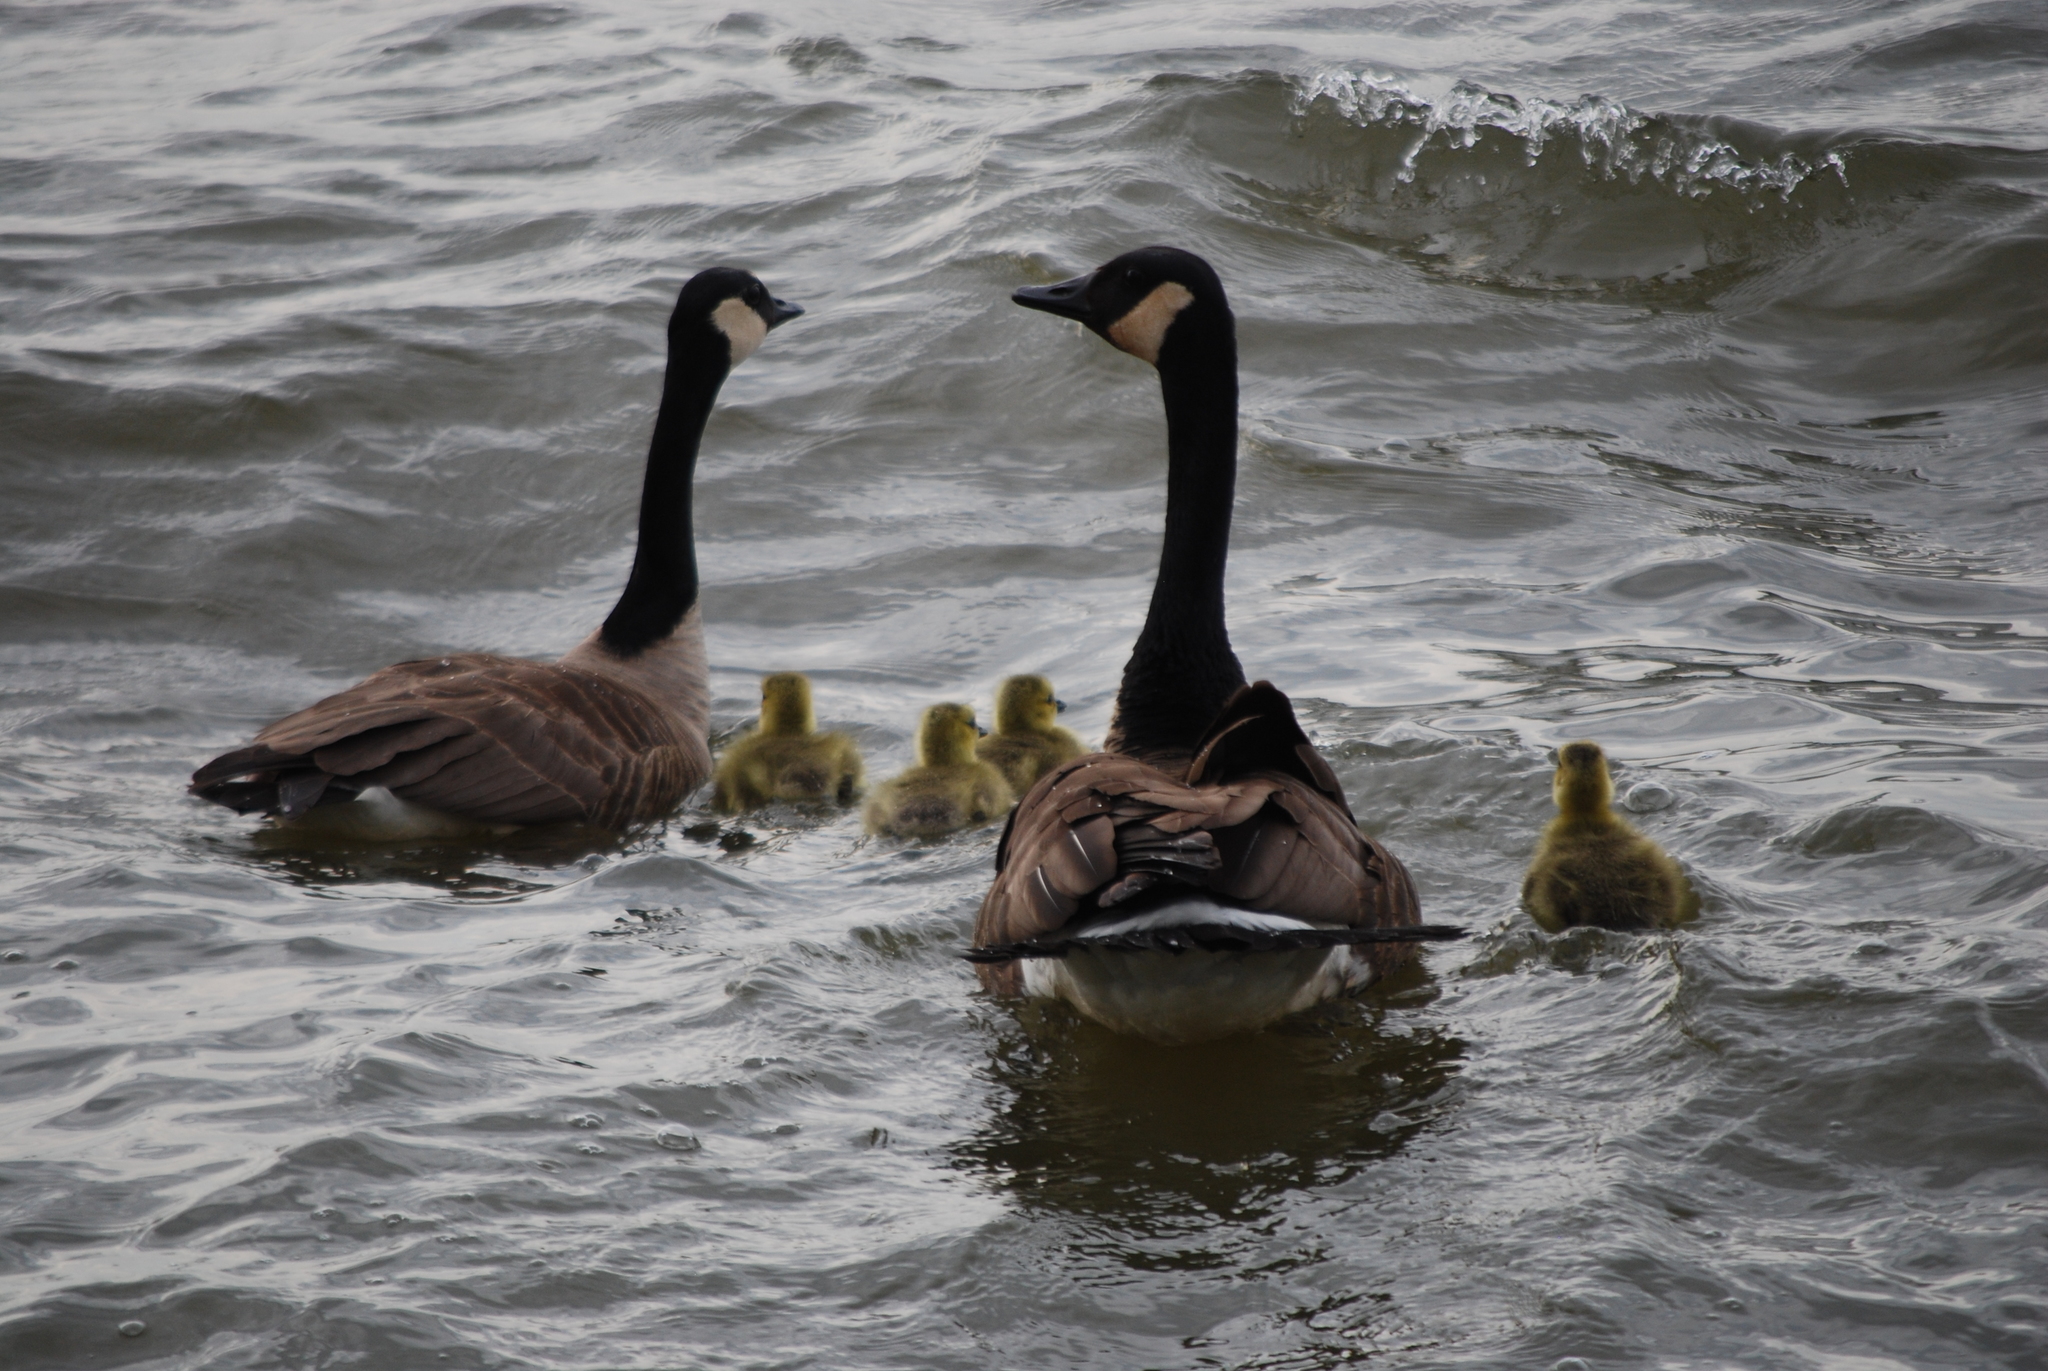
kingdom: Animalia
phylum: Chordata
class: Aves
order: Anseriformes
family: Anatidae
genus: Branta
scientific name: Branta canadensis
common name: Canada goose
